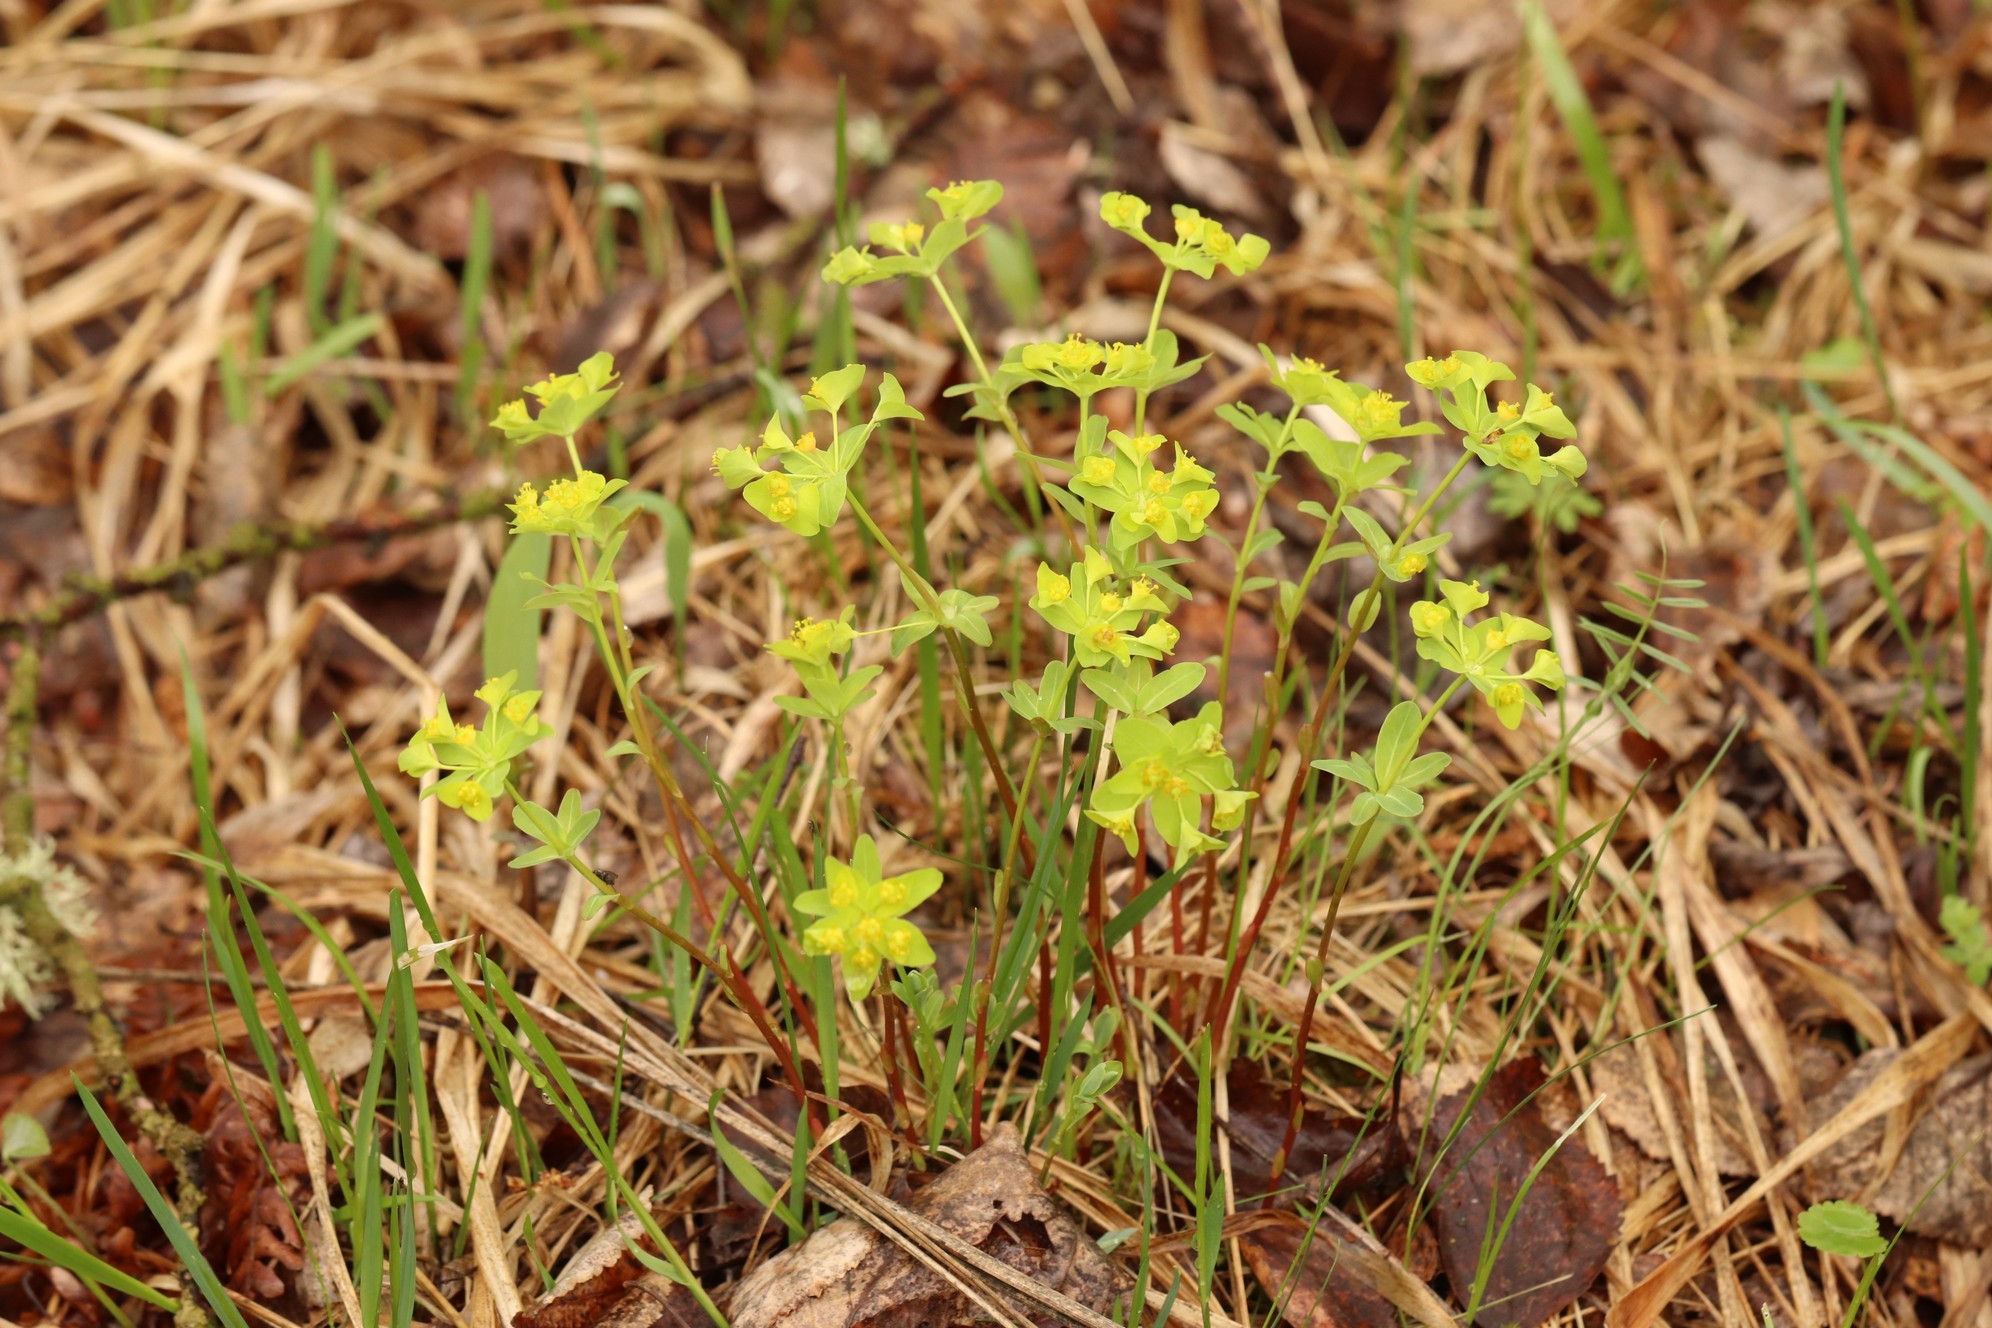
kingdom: Plantae
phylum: Tracheophyta
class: Magnoliopsida
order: Malpighiales
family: Euphorbiaceae
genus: Euphorbia
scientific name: Euphorbia altaica
